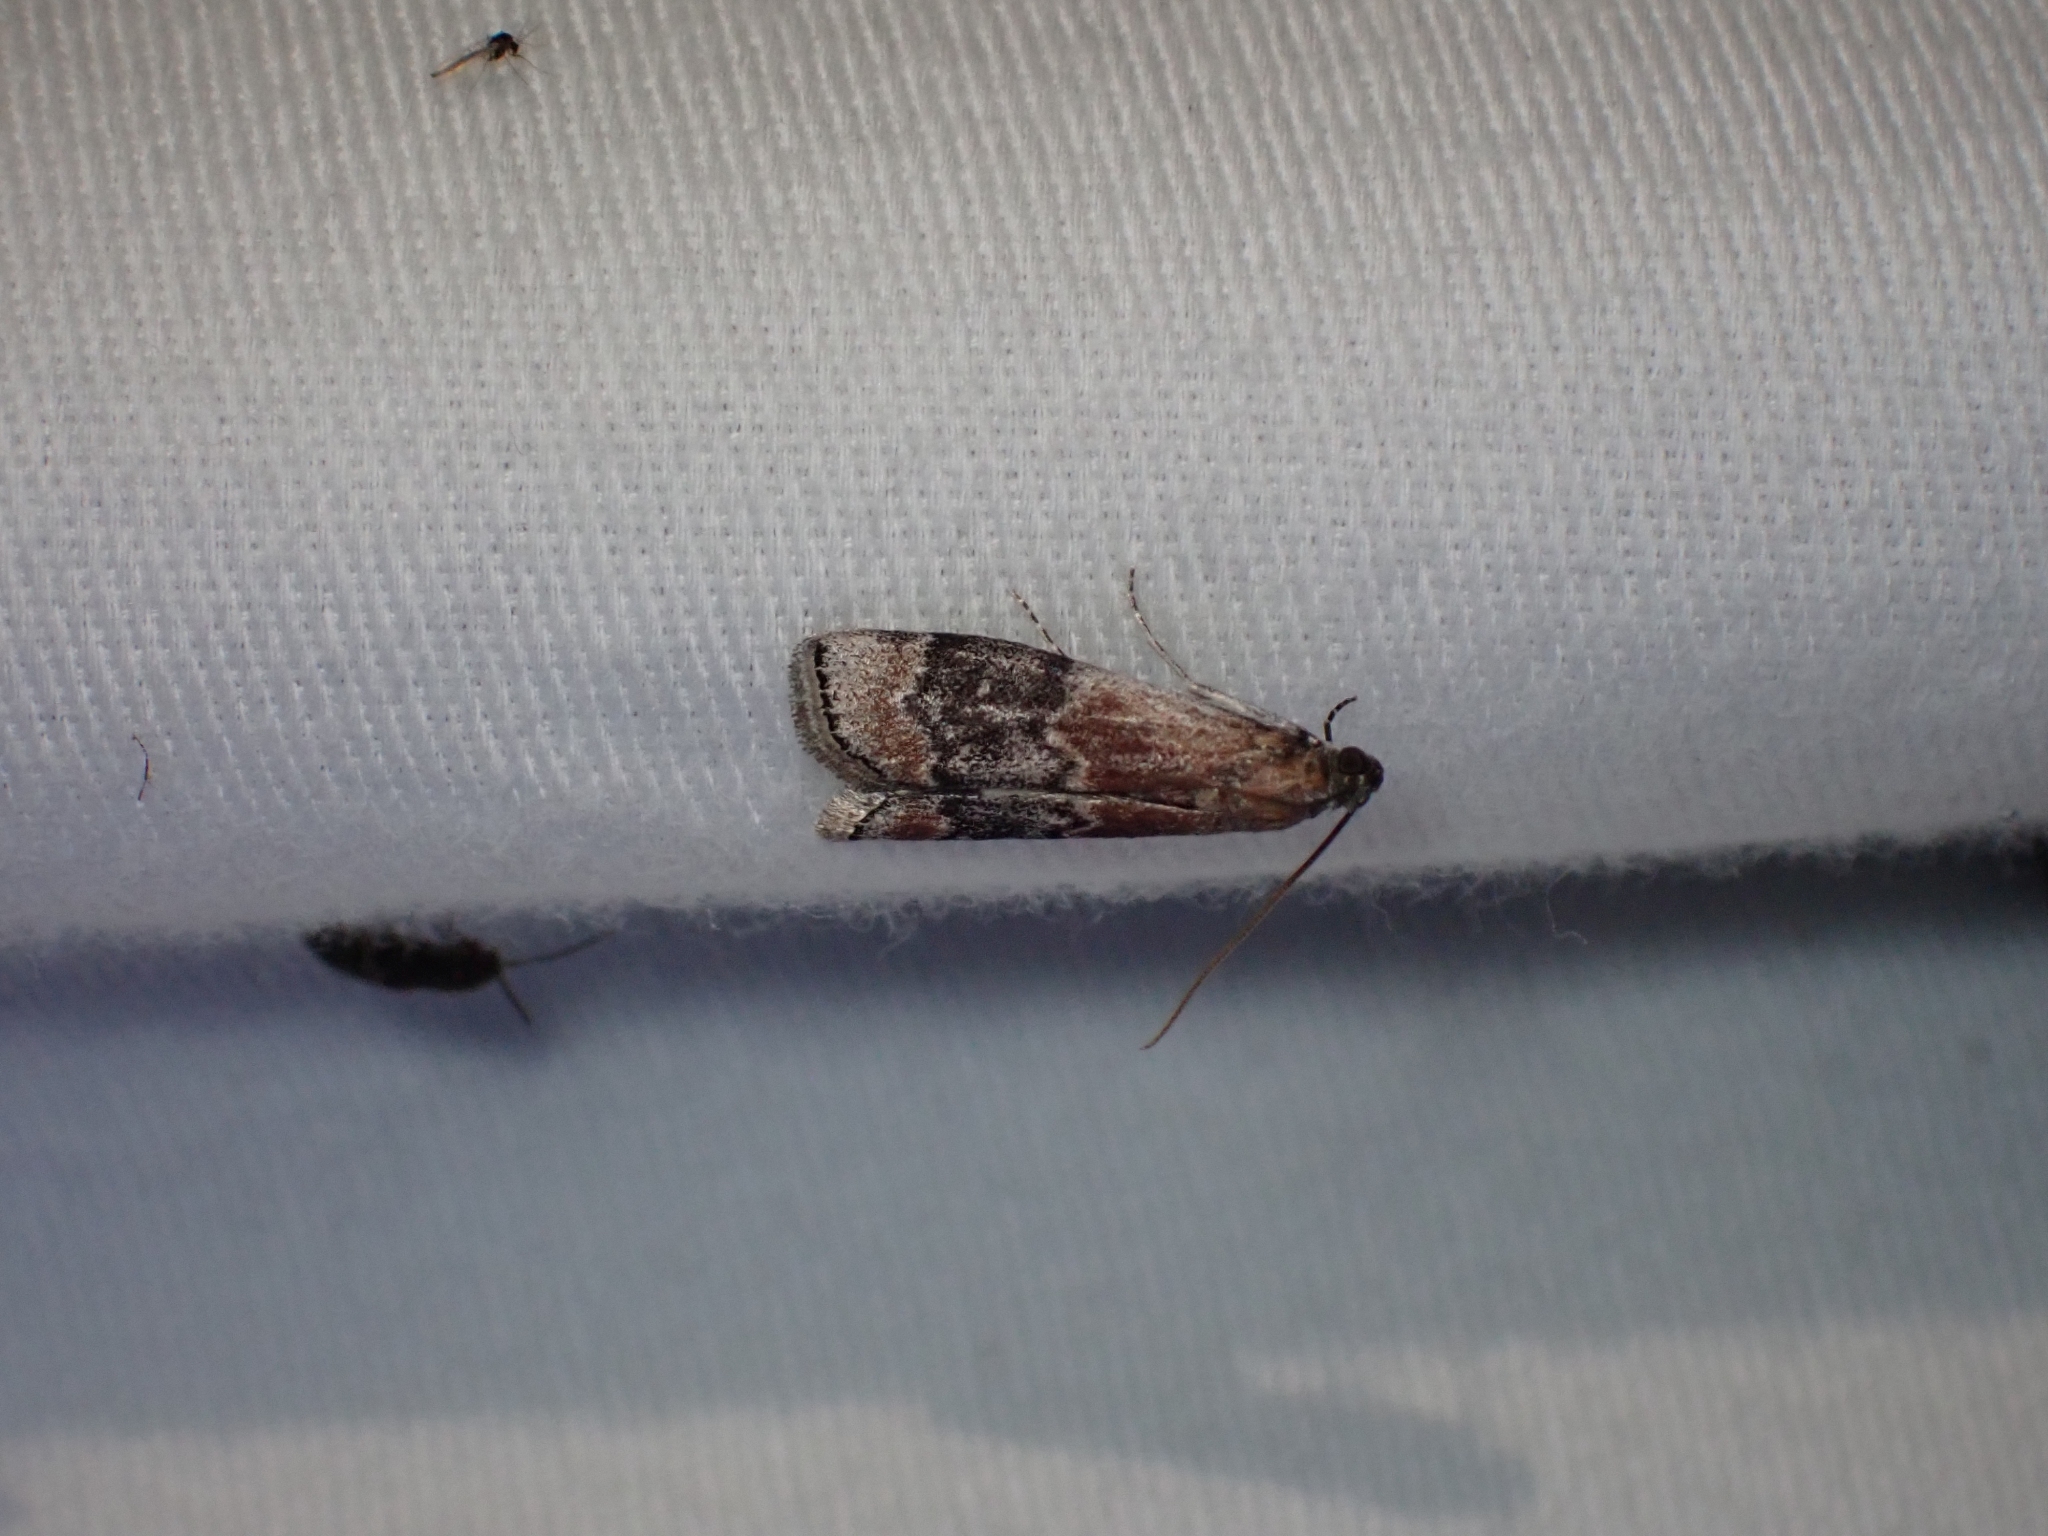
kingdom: Animalia
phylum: Arthropoda
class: Insecta
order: Lepidoptera
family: Pyralidae
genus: Euzophera
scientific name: Euzophera semifuneralis
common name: American plum borer moth
